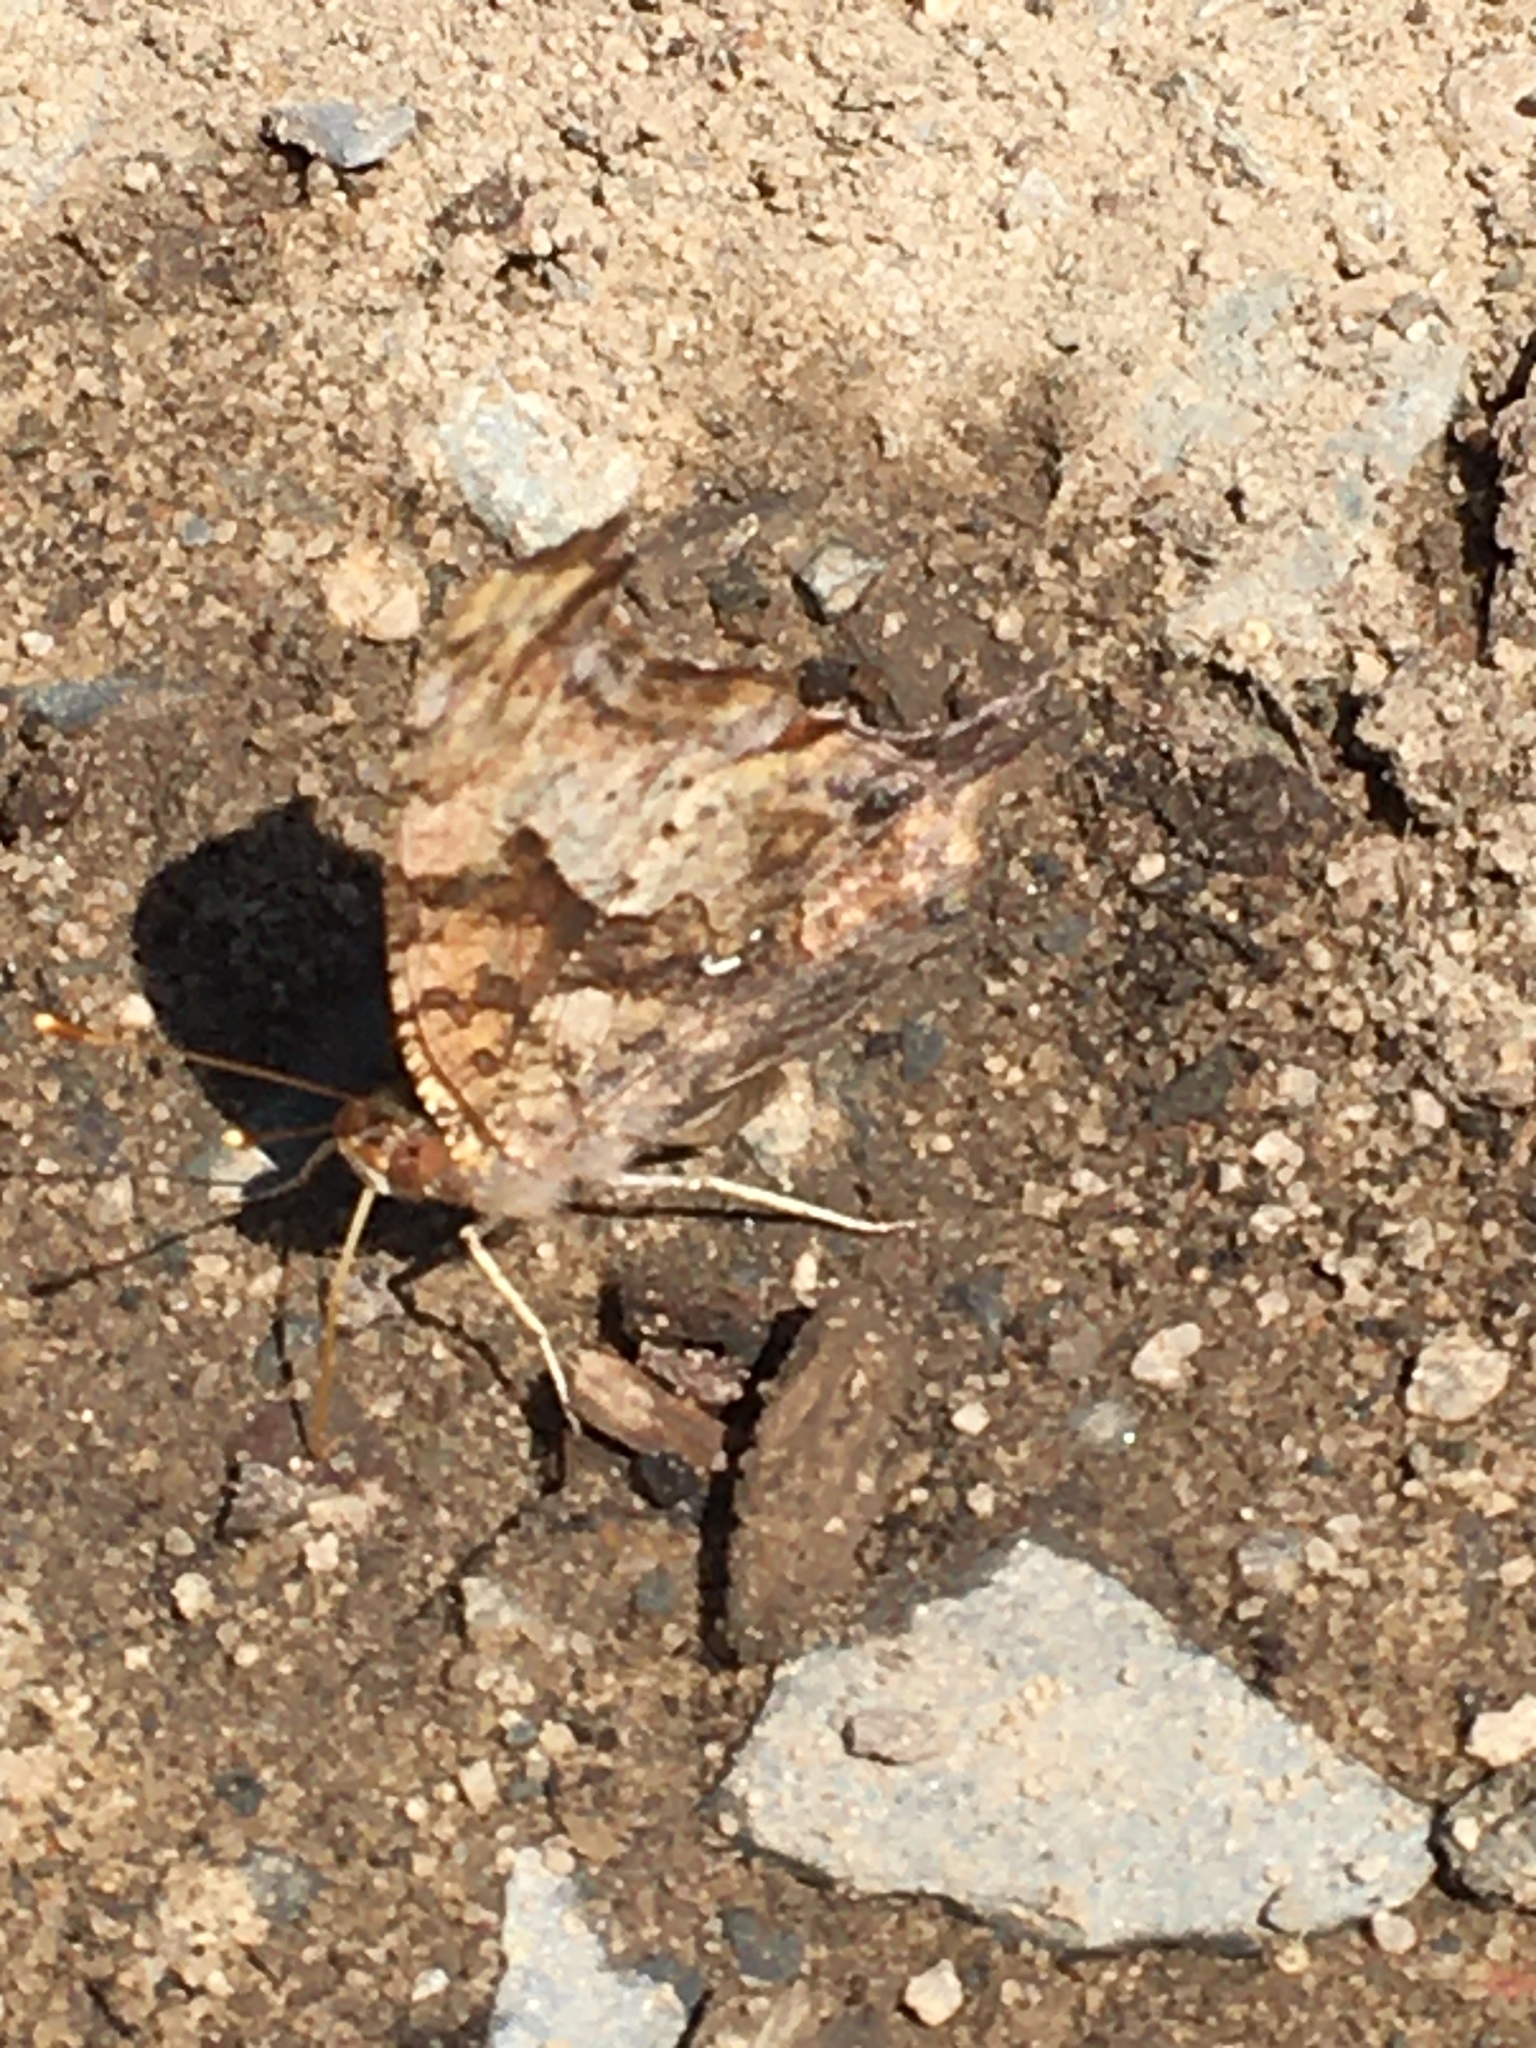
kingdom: Animalia
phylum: Arthropoda
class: Insecta
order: Lepidoptera
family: Nymphalidae
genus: Polygonia
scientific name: Polygonia interrogationis
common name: Question mark
